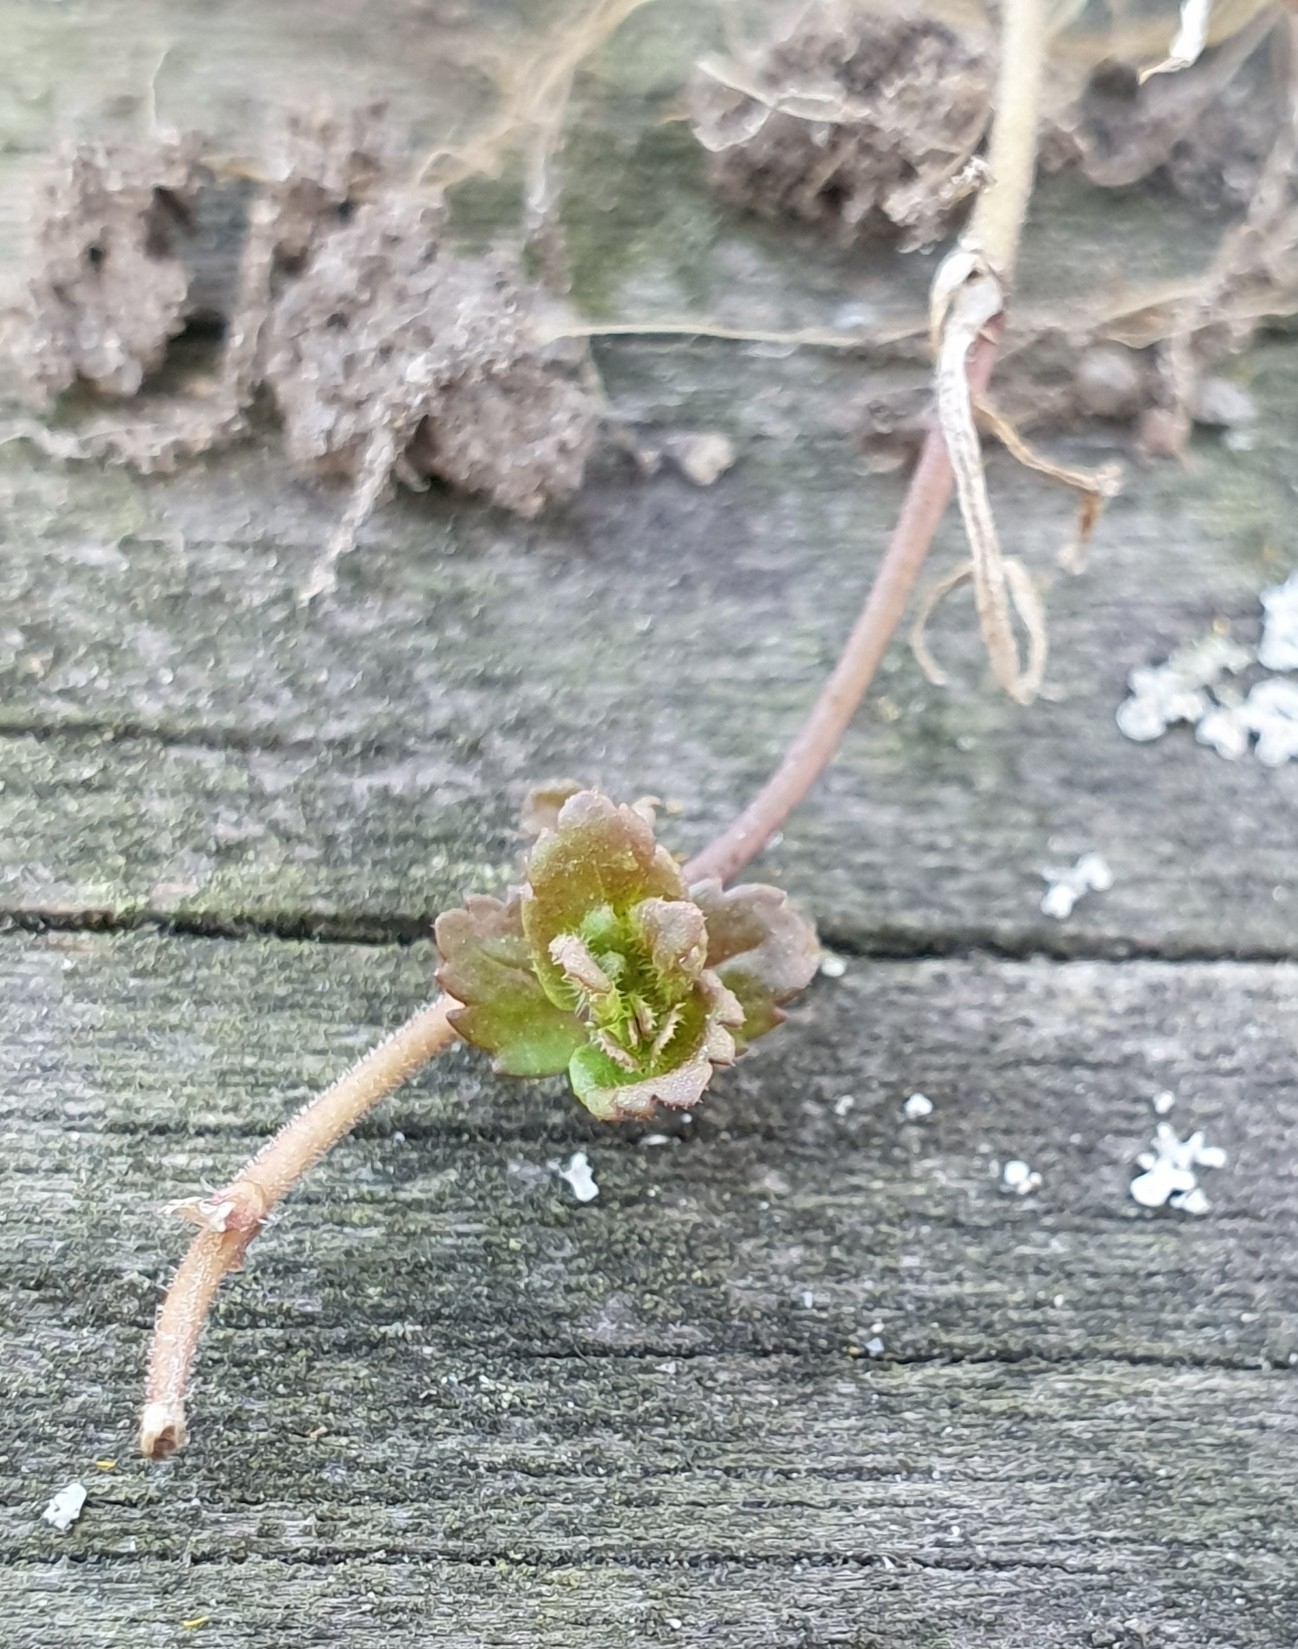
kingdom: Plantae
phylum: Tracheophyta
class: Magnoliopsida
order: Lamiales
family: Plantaginaceae
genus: Veronica
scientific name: Veronica persica
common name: Common field-speedwell
